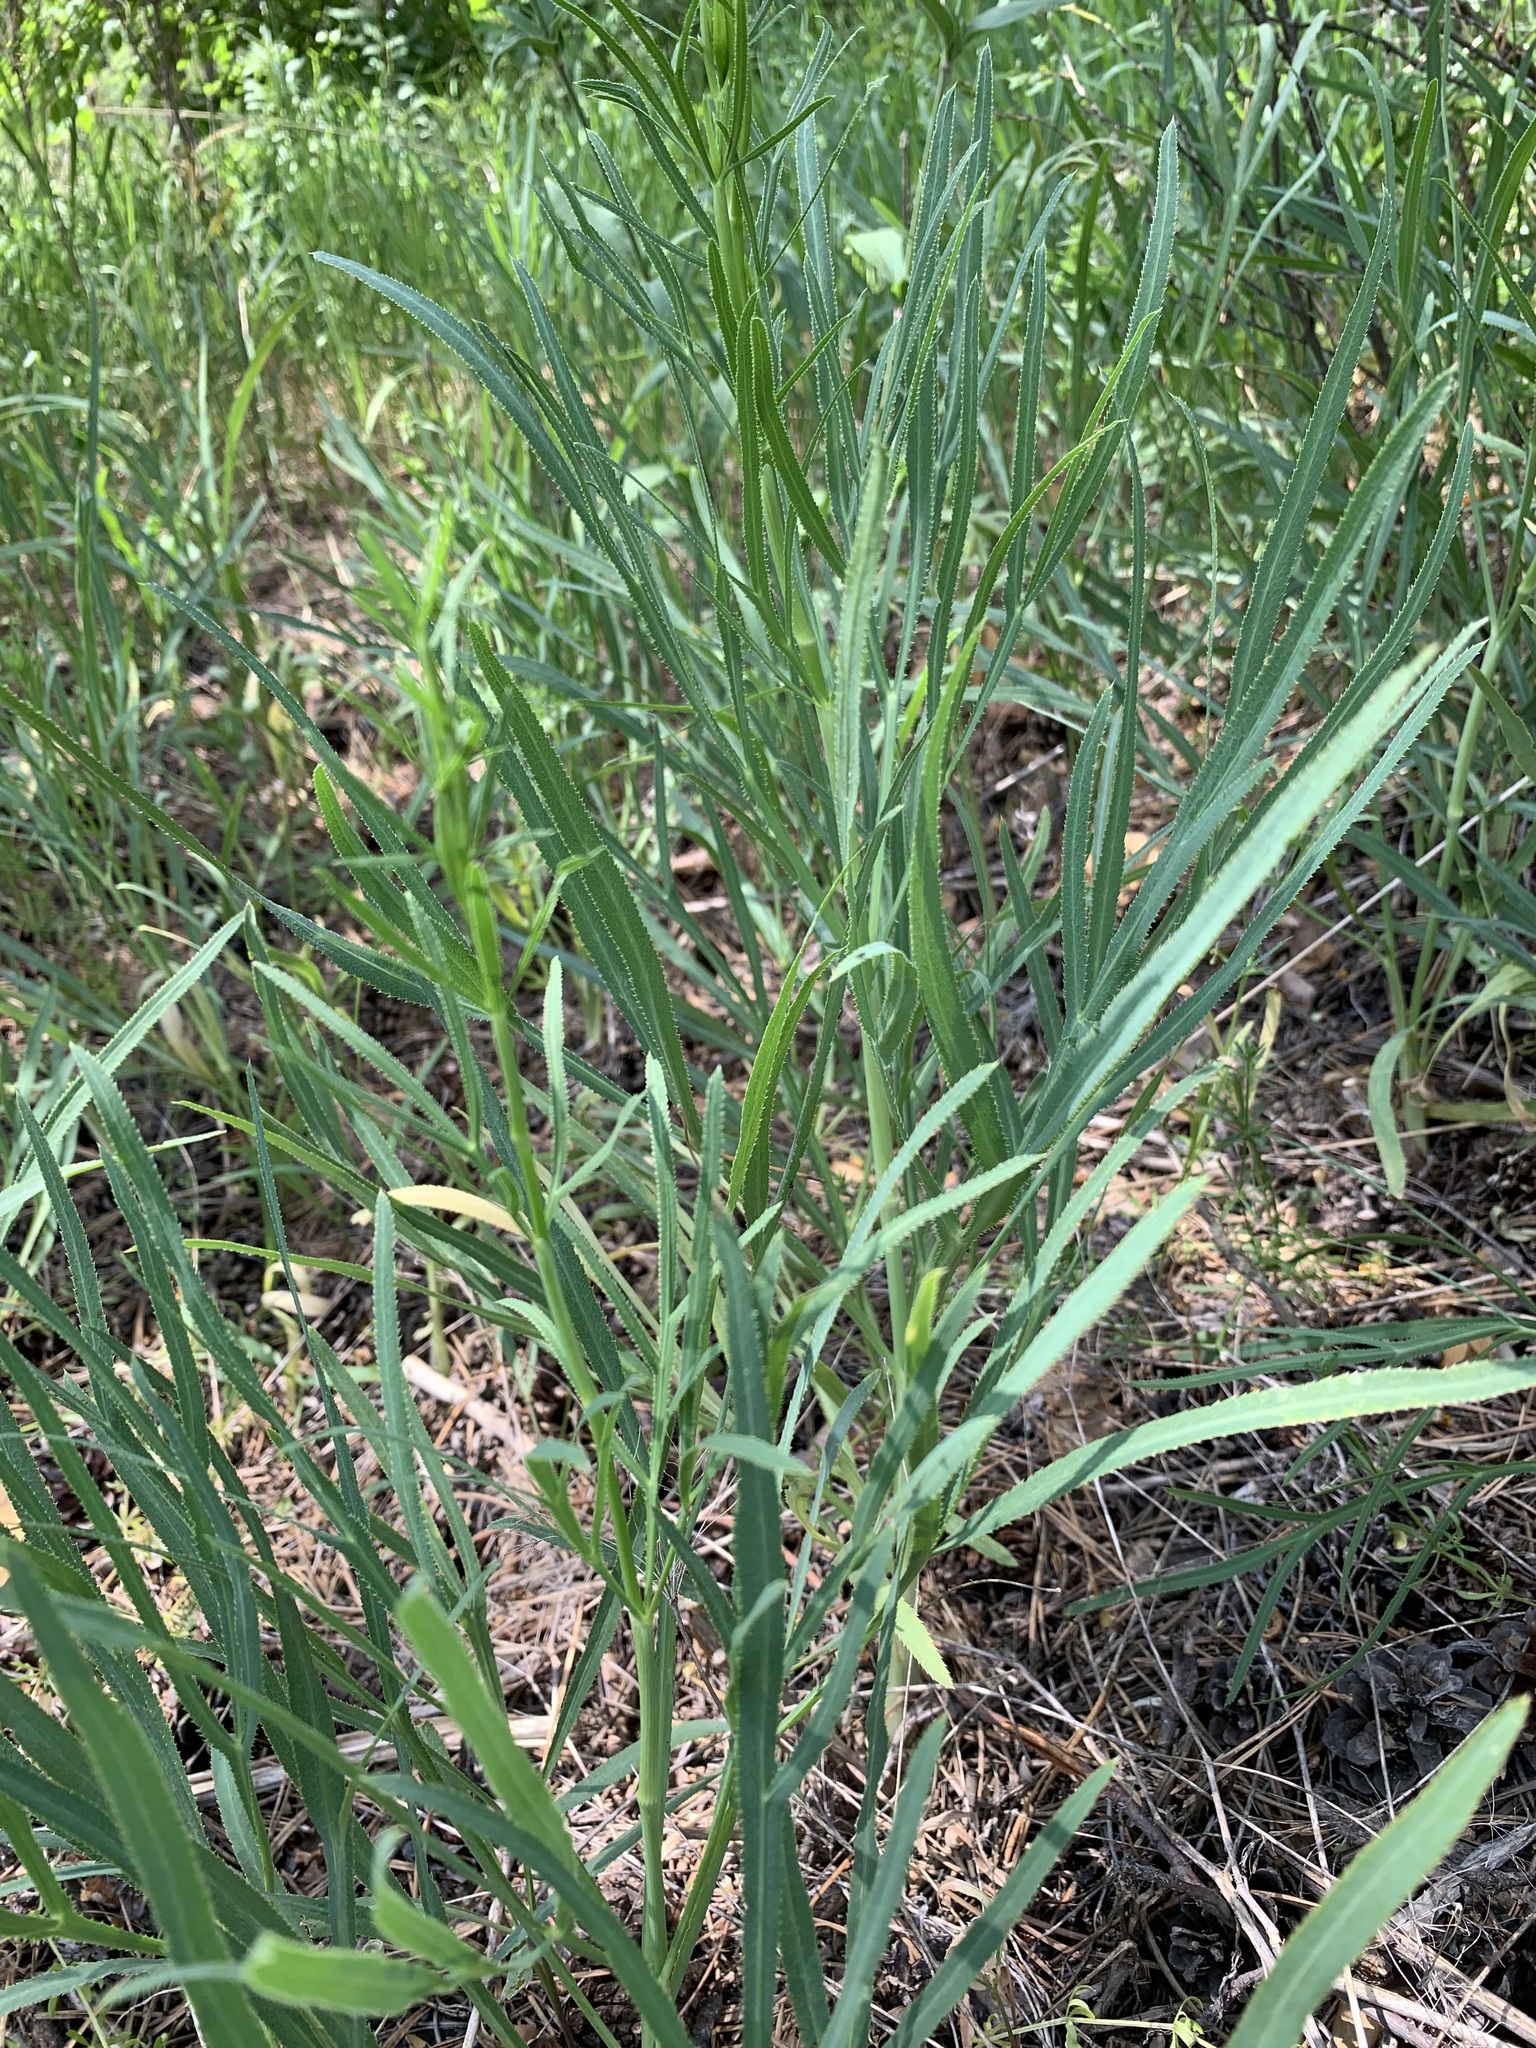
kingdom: Plantae
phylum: Tracheophyta
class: Magnoliopsida
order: Apiales
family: Apiaceae
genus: Falcaria
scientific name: Falcaria vulgaris
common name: Longleaf
